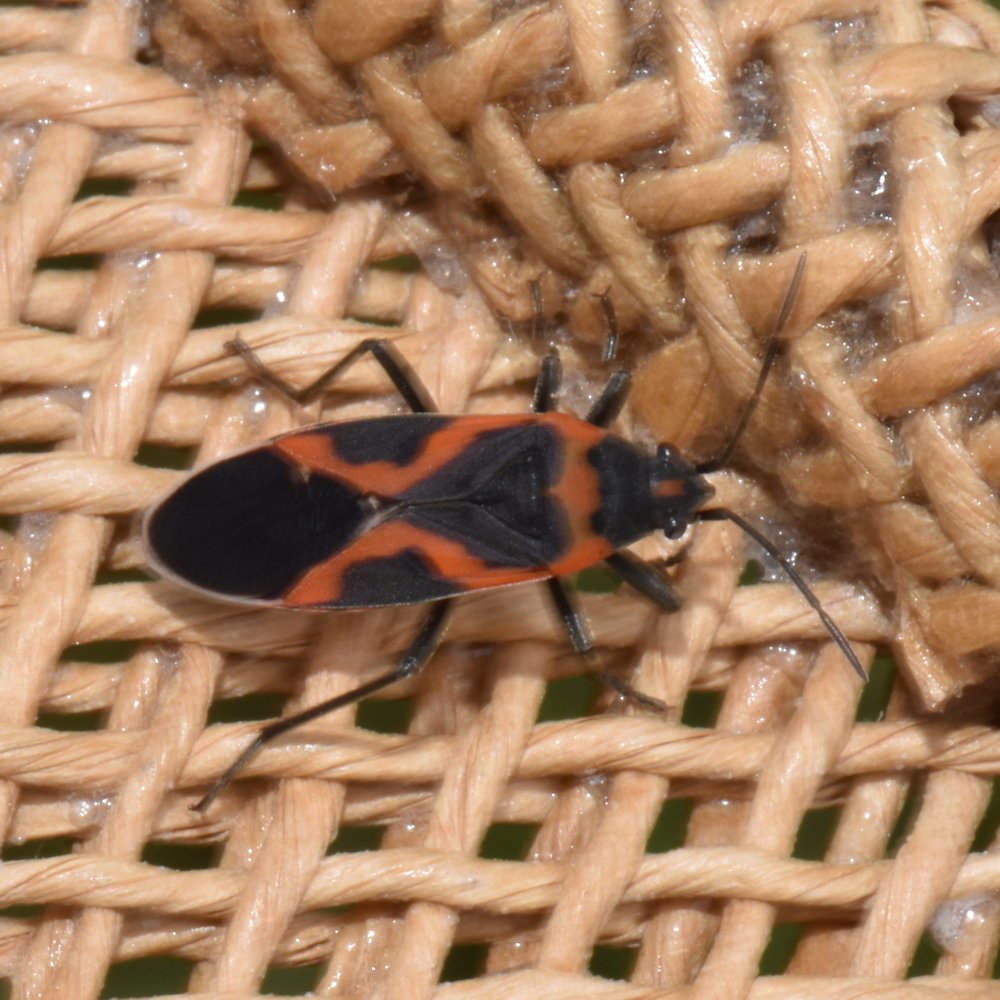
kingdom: Animalia
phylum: Arthropoda
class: Insecta
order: Hemiptera
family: Lygaeidae
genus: Lygaeus
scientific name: Lygaeus kalmii
